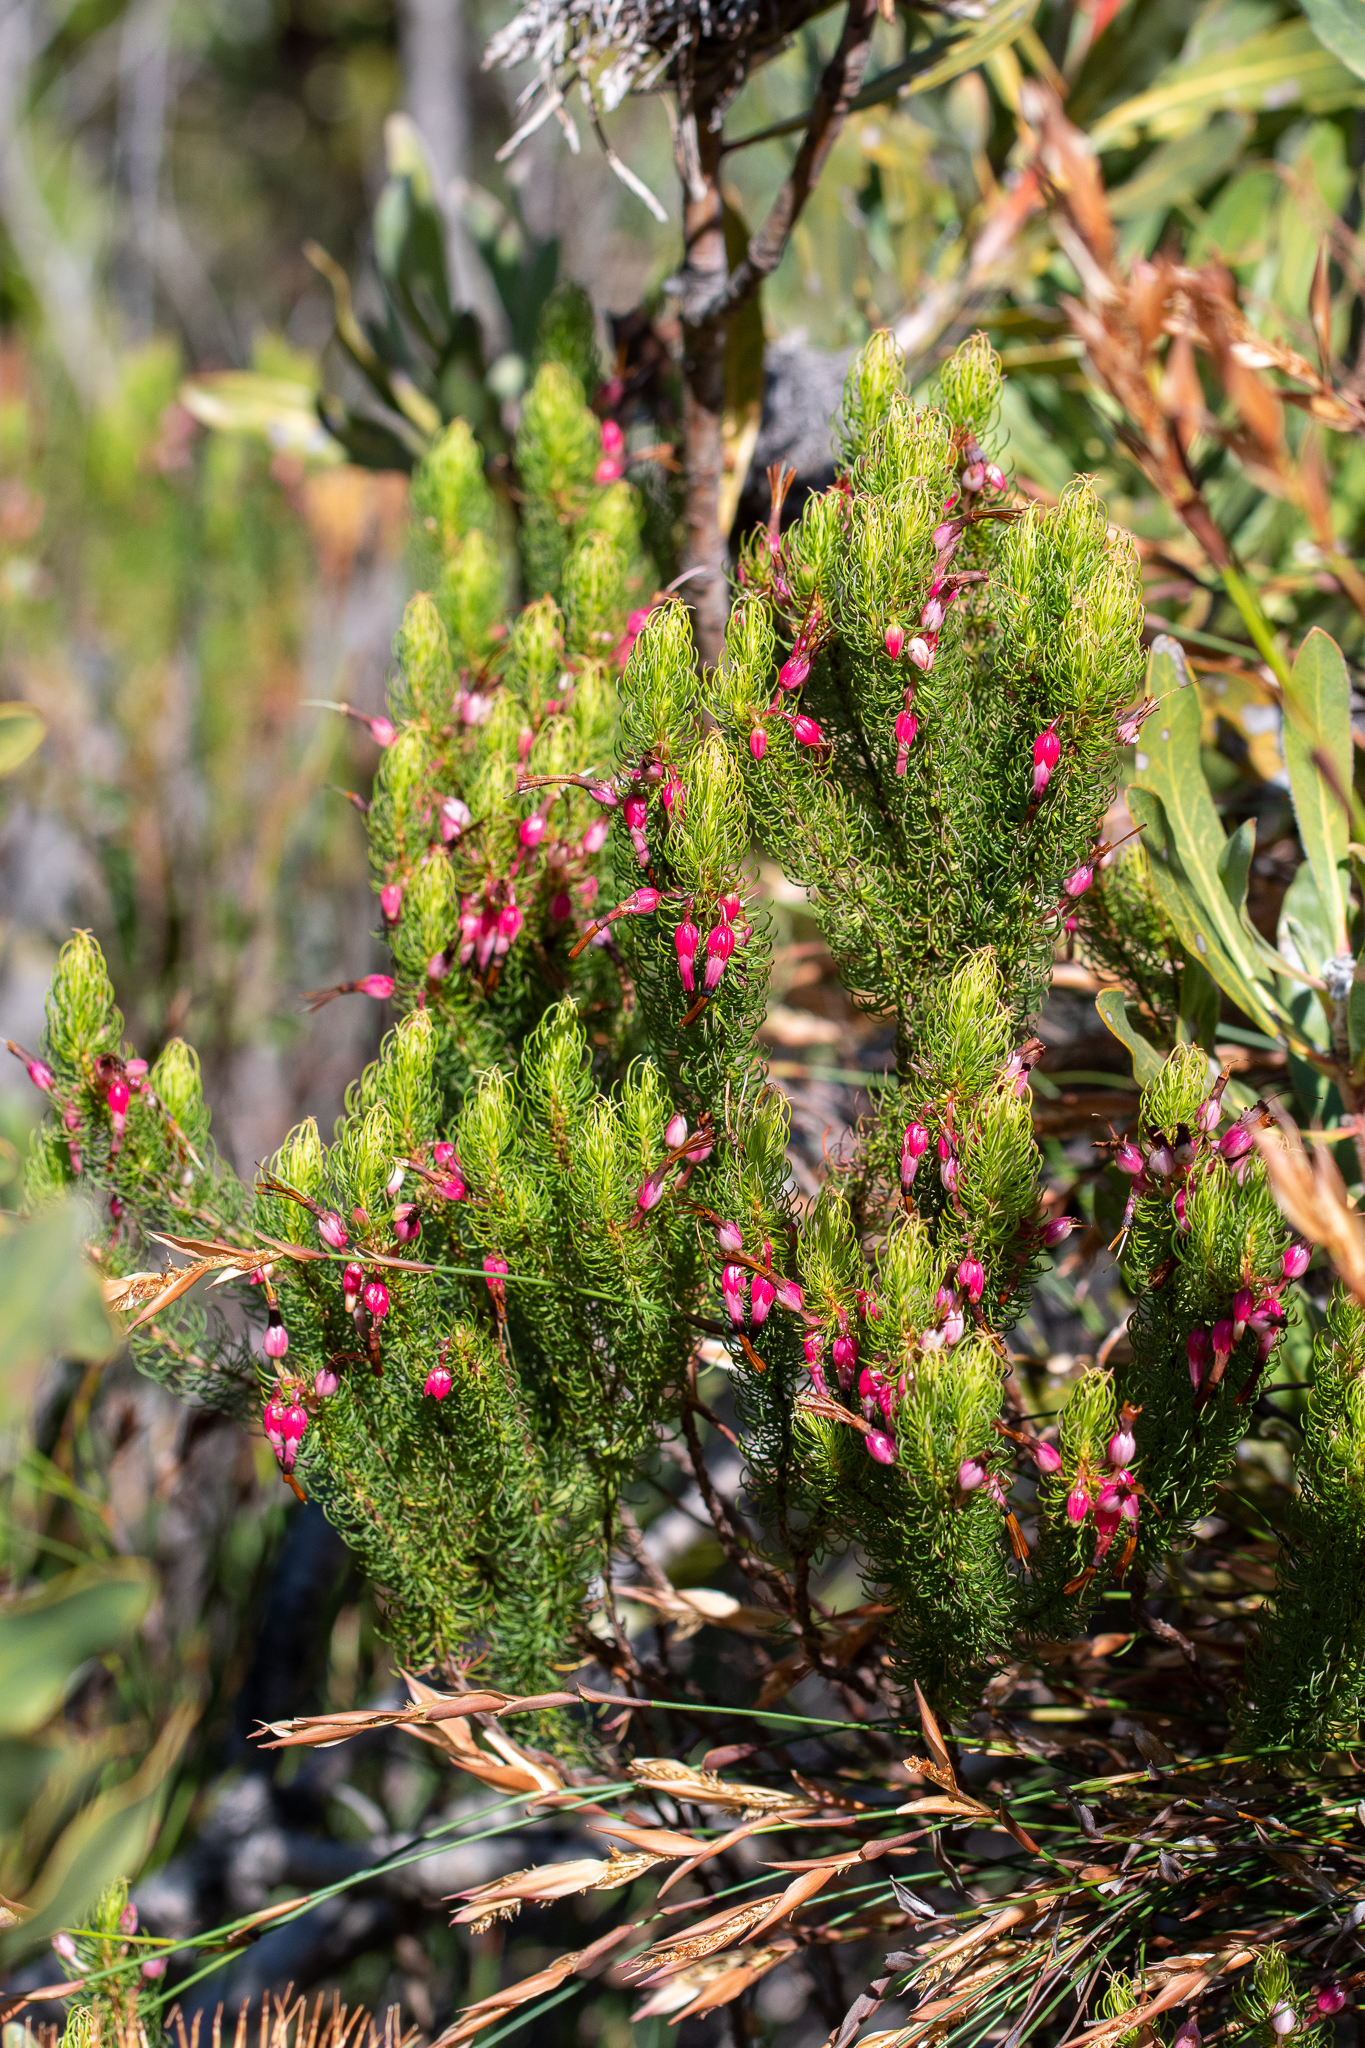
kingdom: Plantae
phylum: Tracheophyta
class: Magnoliopsida
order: Ericales
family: Ericaceae
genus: Erica
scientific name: Erica plukenetii
